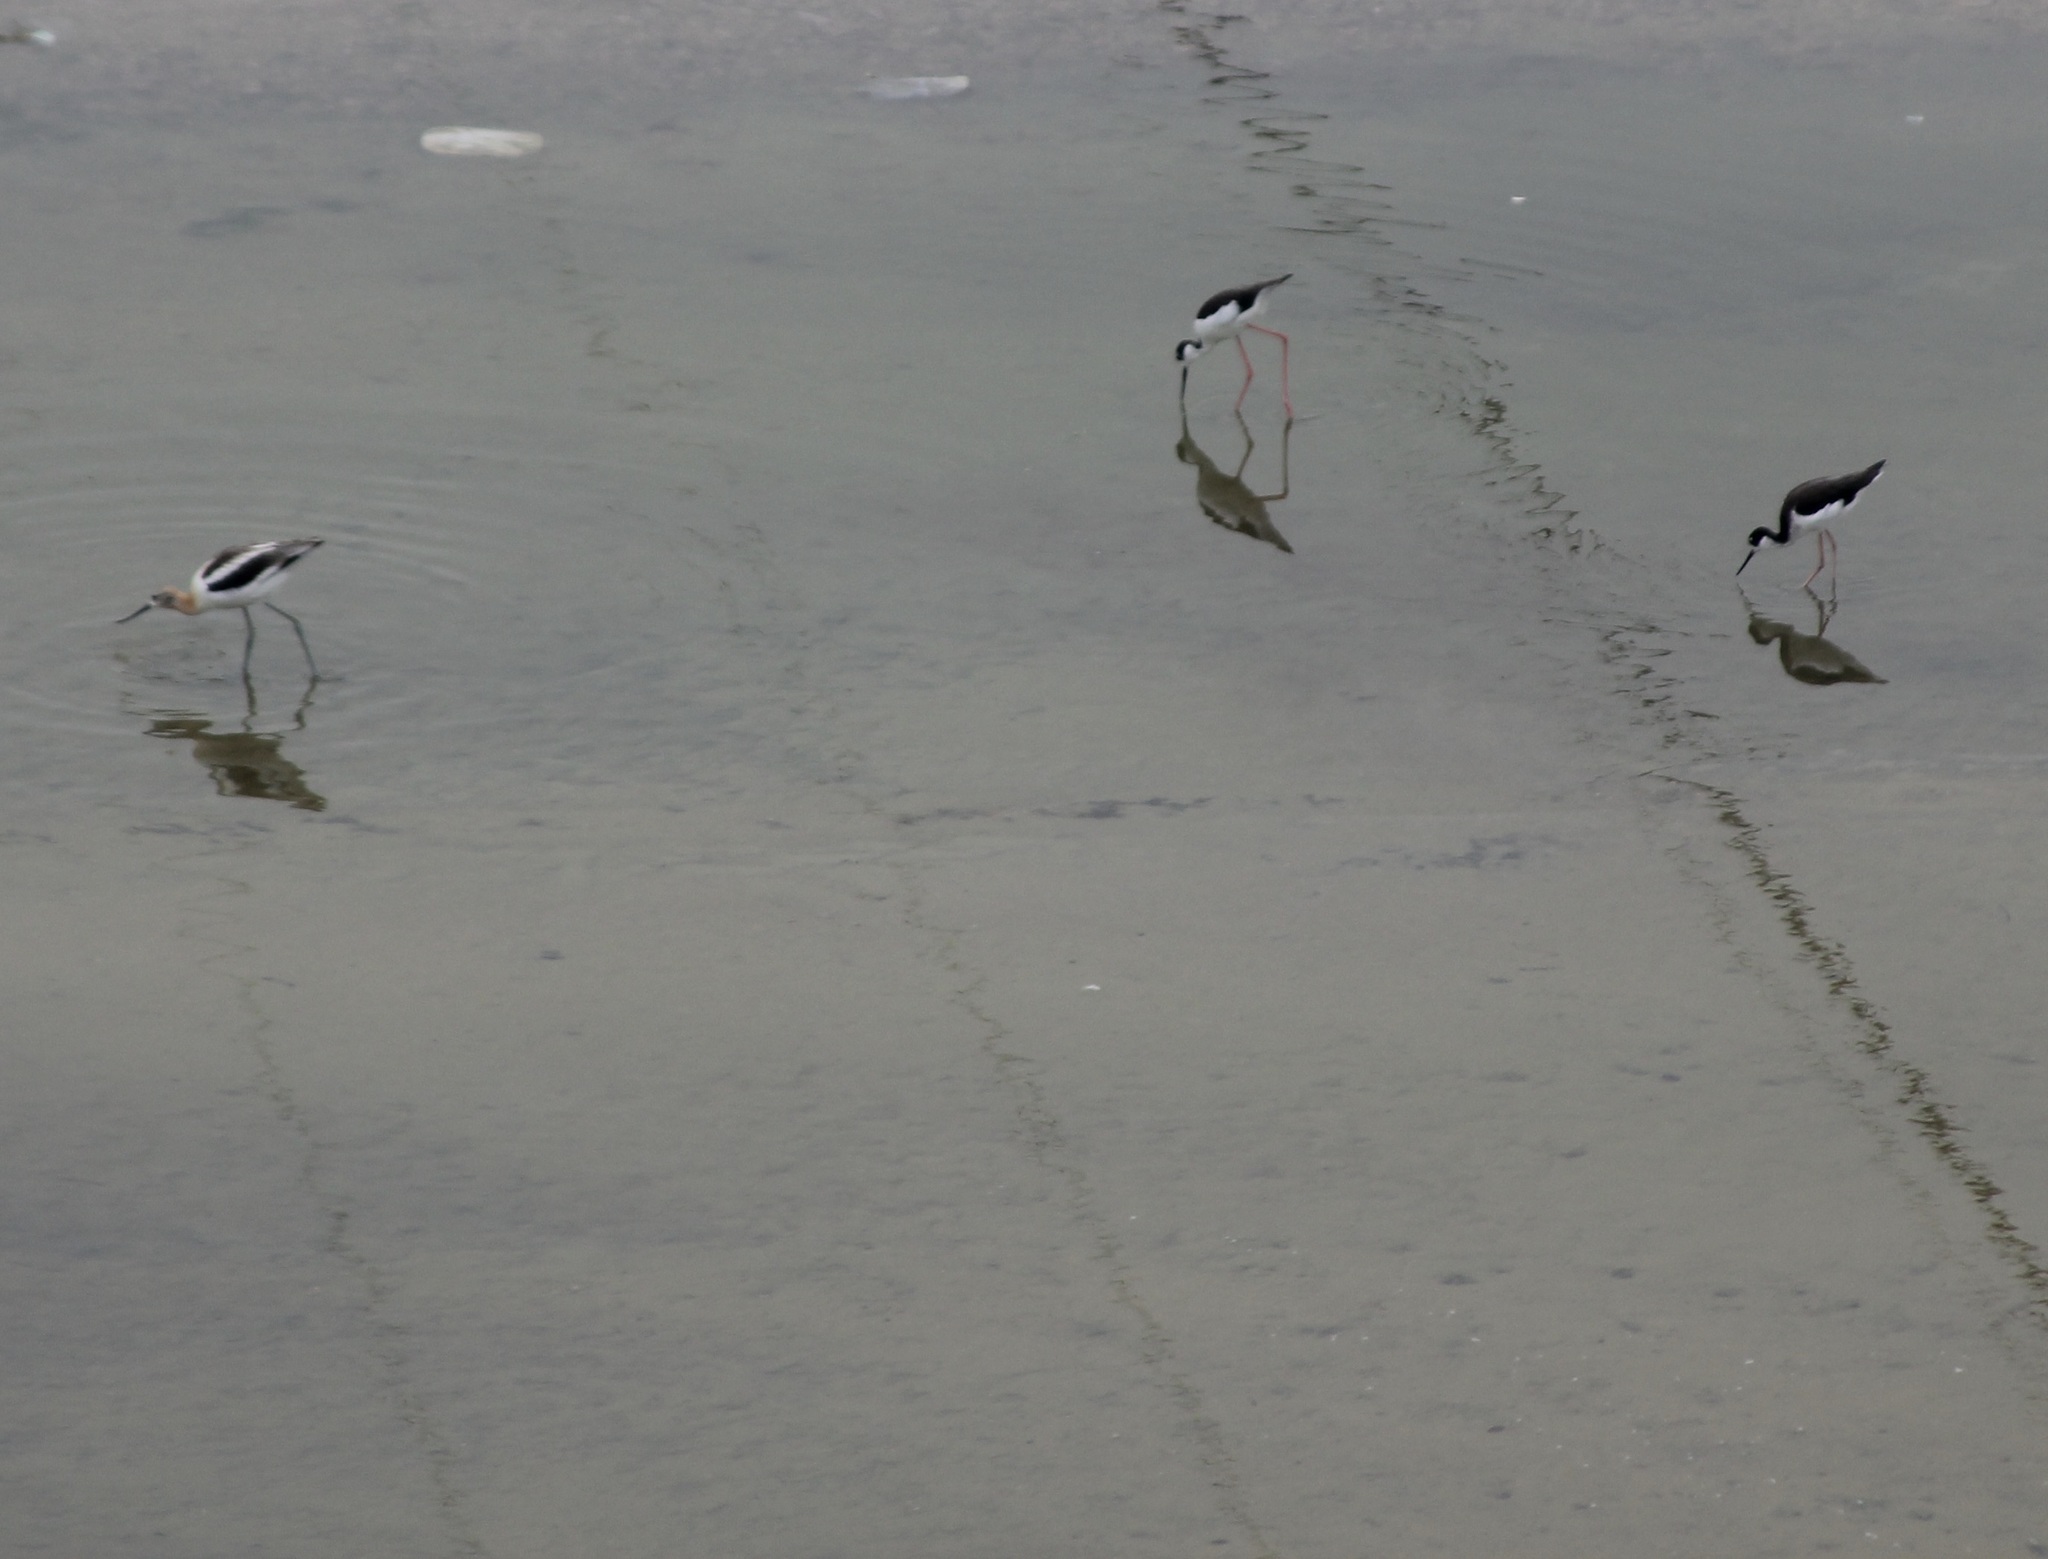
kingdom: Animalia
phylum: Chordata
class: Aves
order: Charadriiformes
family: Recurvirostridae
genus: Himantopus
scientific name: Himantopus mexicanus
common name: Black-necked stilt
